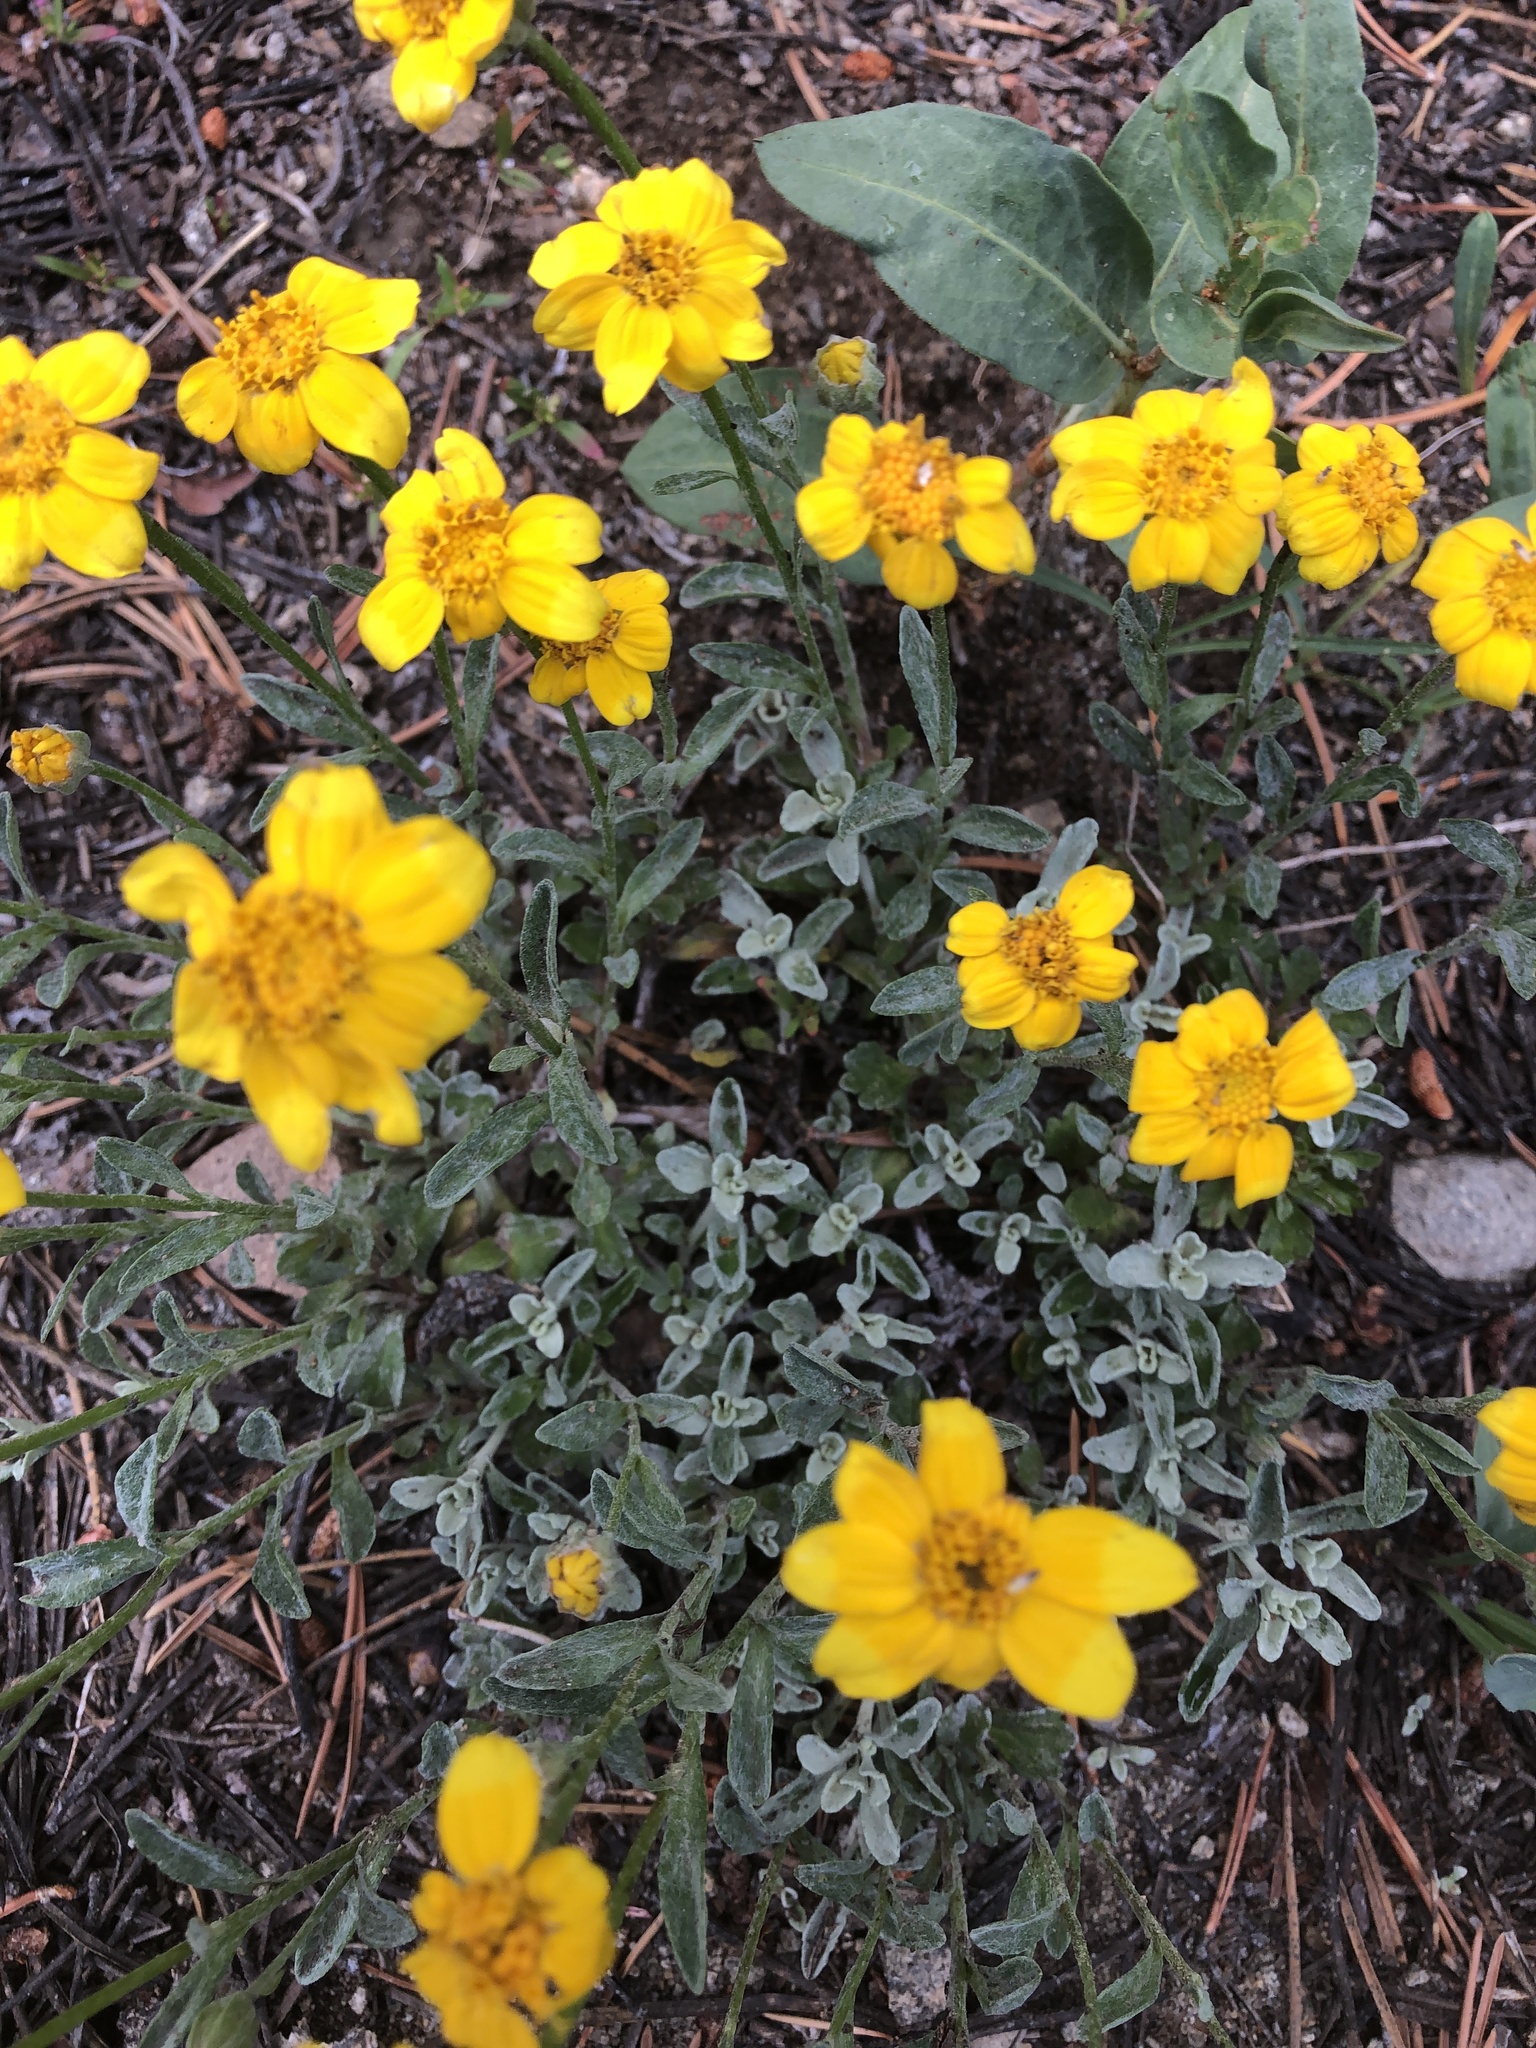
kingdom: Plantae
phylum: Tracheophyta
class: Magnoliopsida
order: Asterales
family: Asteraceae
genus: Eriophyllum
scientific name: Eriophyllum lanatum
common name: Common woolly-sunflower
